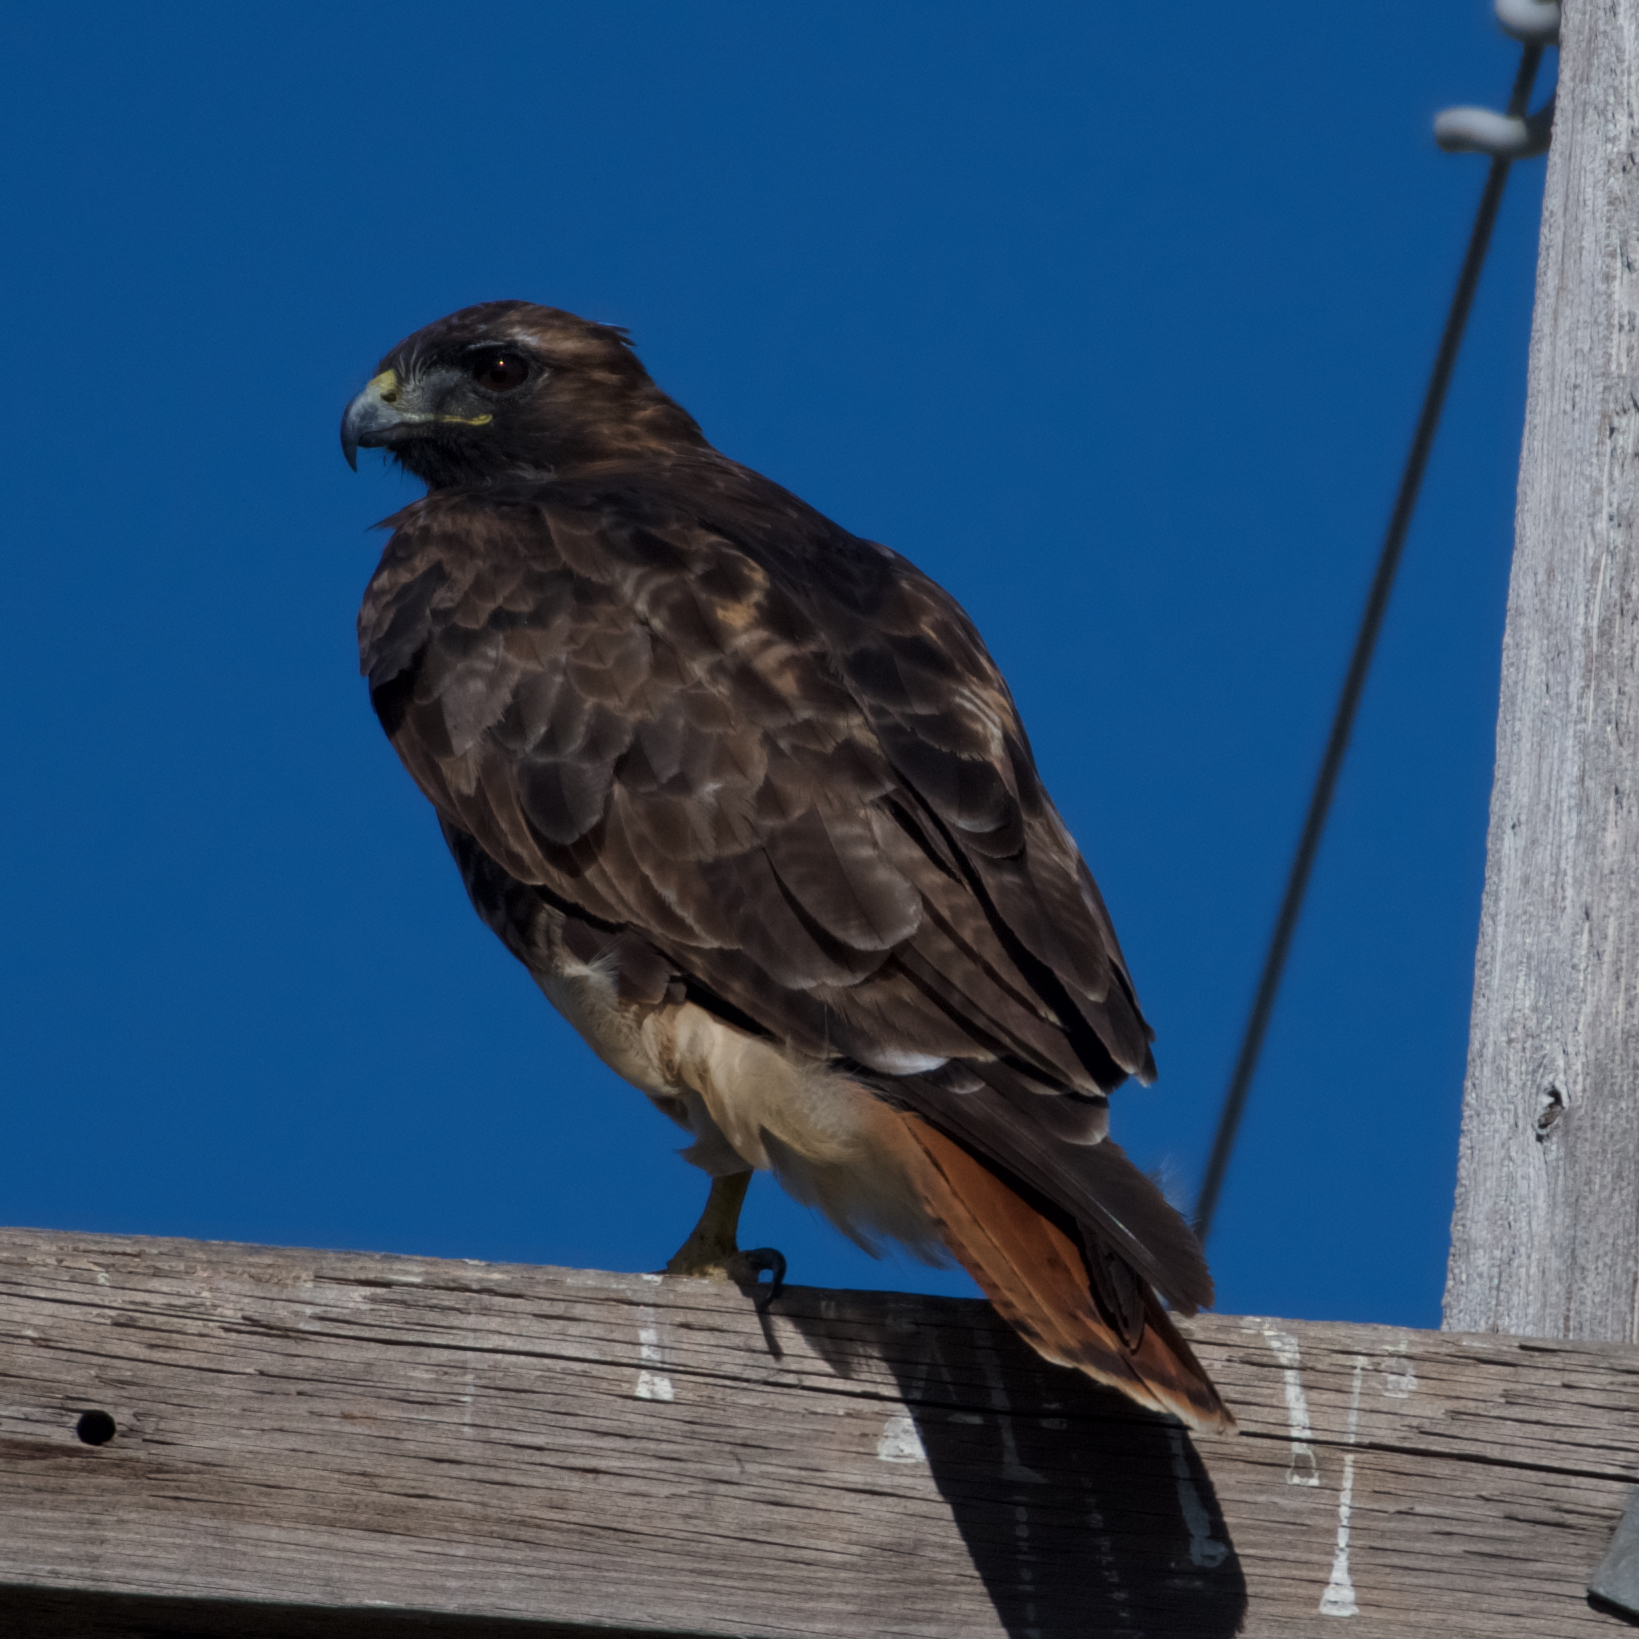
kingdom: Animalia
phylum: Chordata
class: Aves
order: Accipitriformes
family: Accipitridae
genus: Buteo
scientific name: Buteo jamaicensis
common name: Red-tailed hawk
